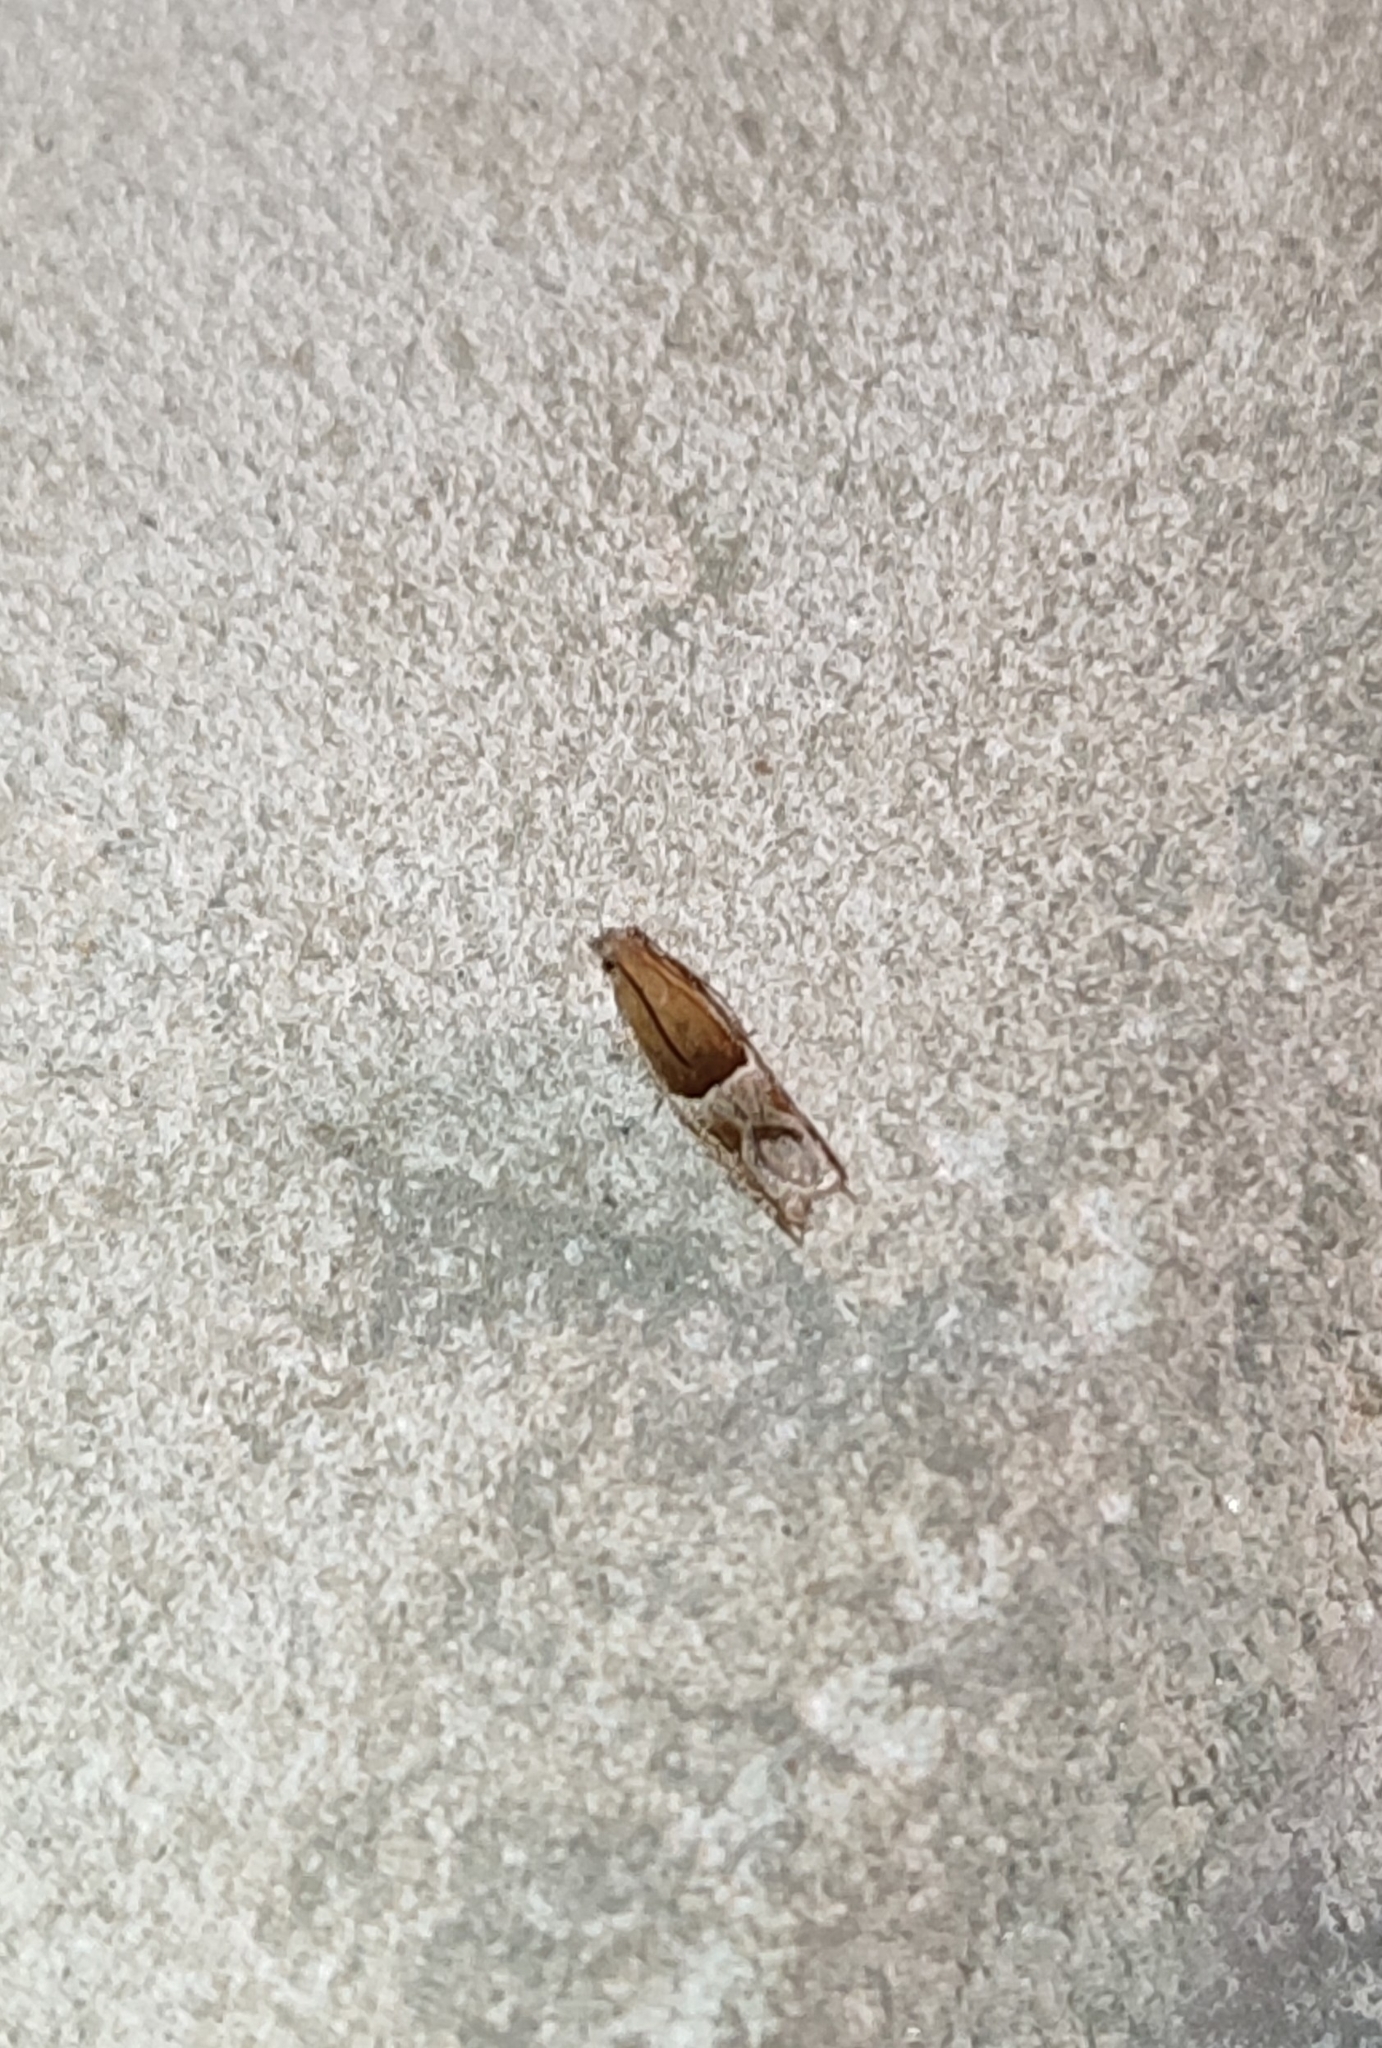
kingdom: Animalia
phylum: Arthropoda
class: Insecta
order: Lepidoptera
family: Tortricidae
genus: Ancylis
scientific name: Ancylis comptana
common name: Little roller
